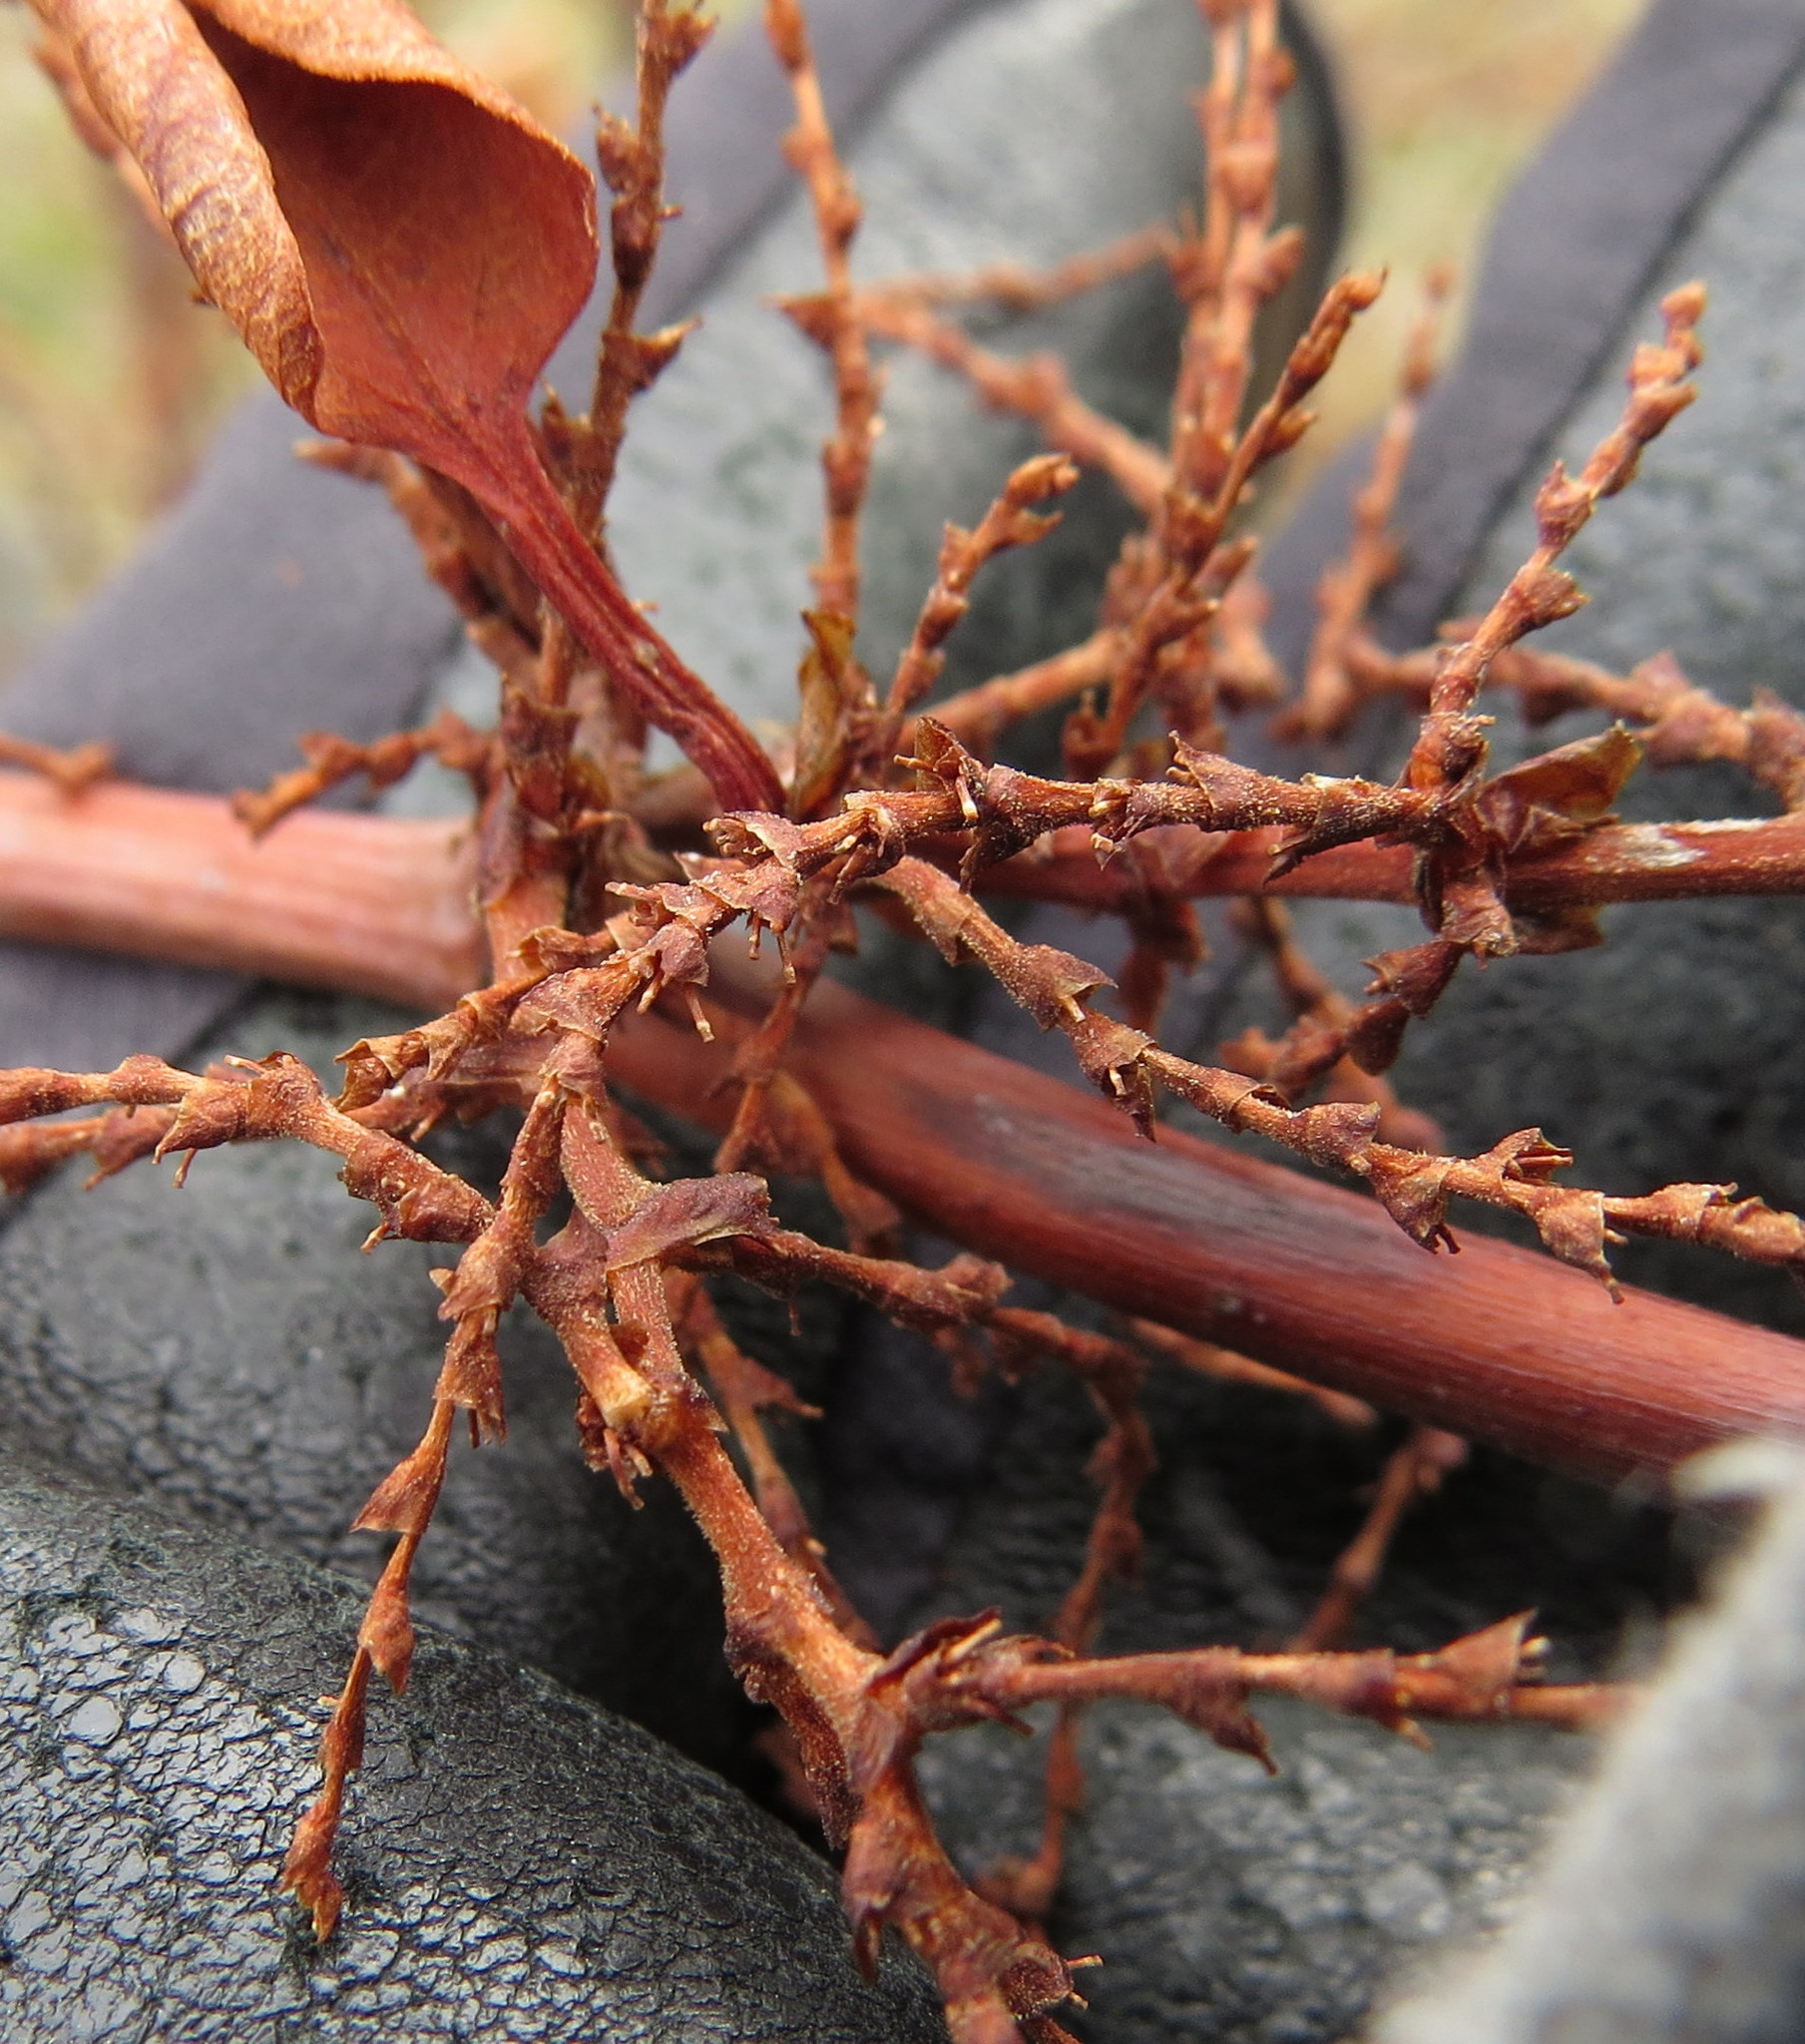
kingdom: Plantae
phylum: Tracheophyta
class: Magnoliopsida
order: Caryophyllales
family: Polygonaceae
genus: Reynoutria
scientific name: Reynoutria japonica
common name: Japanese knotweed
